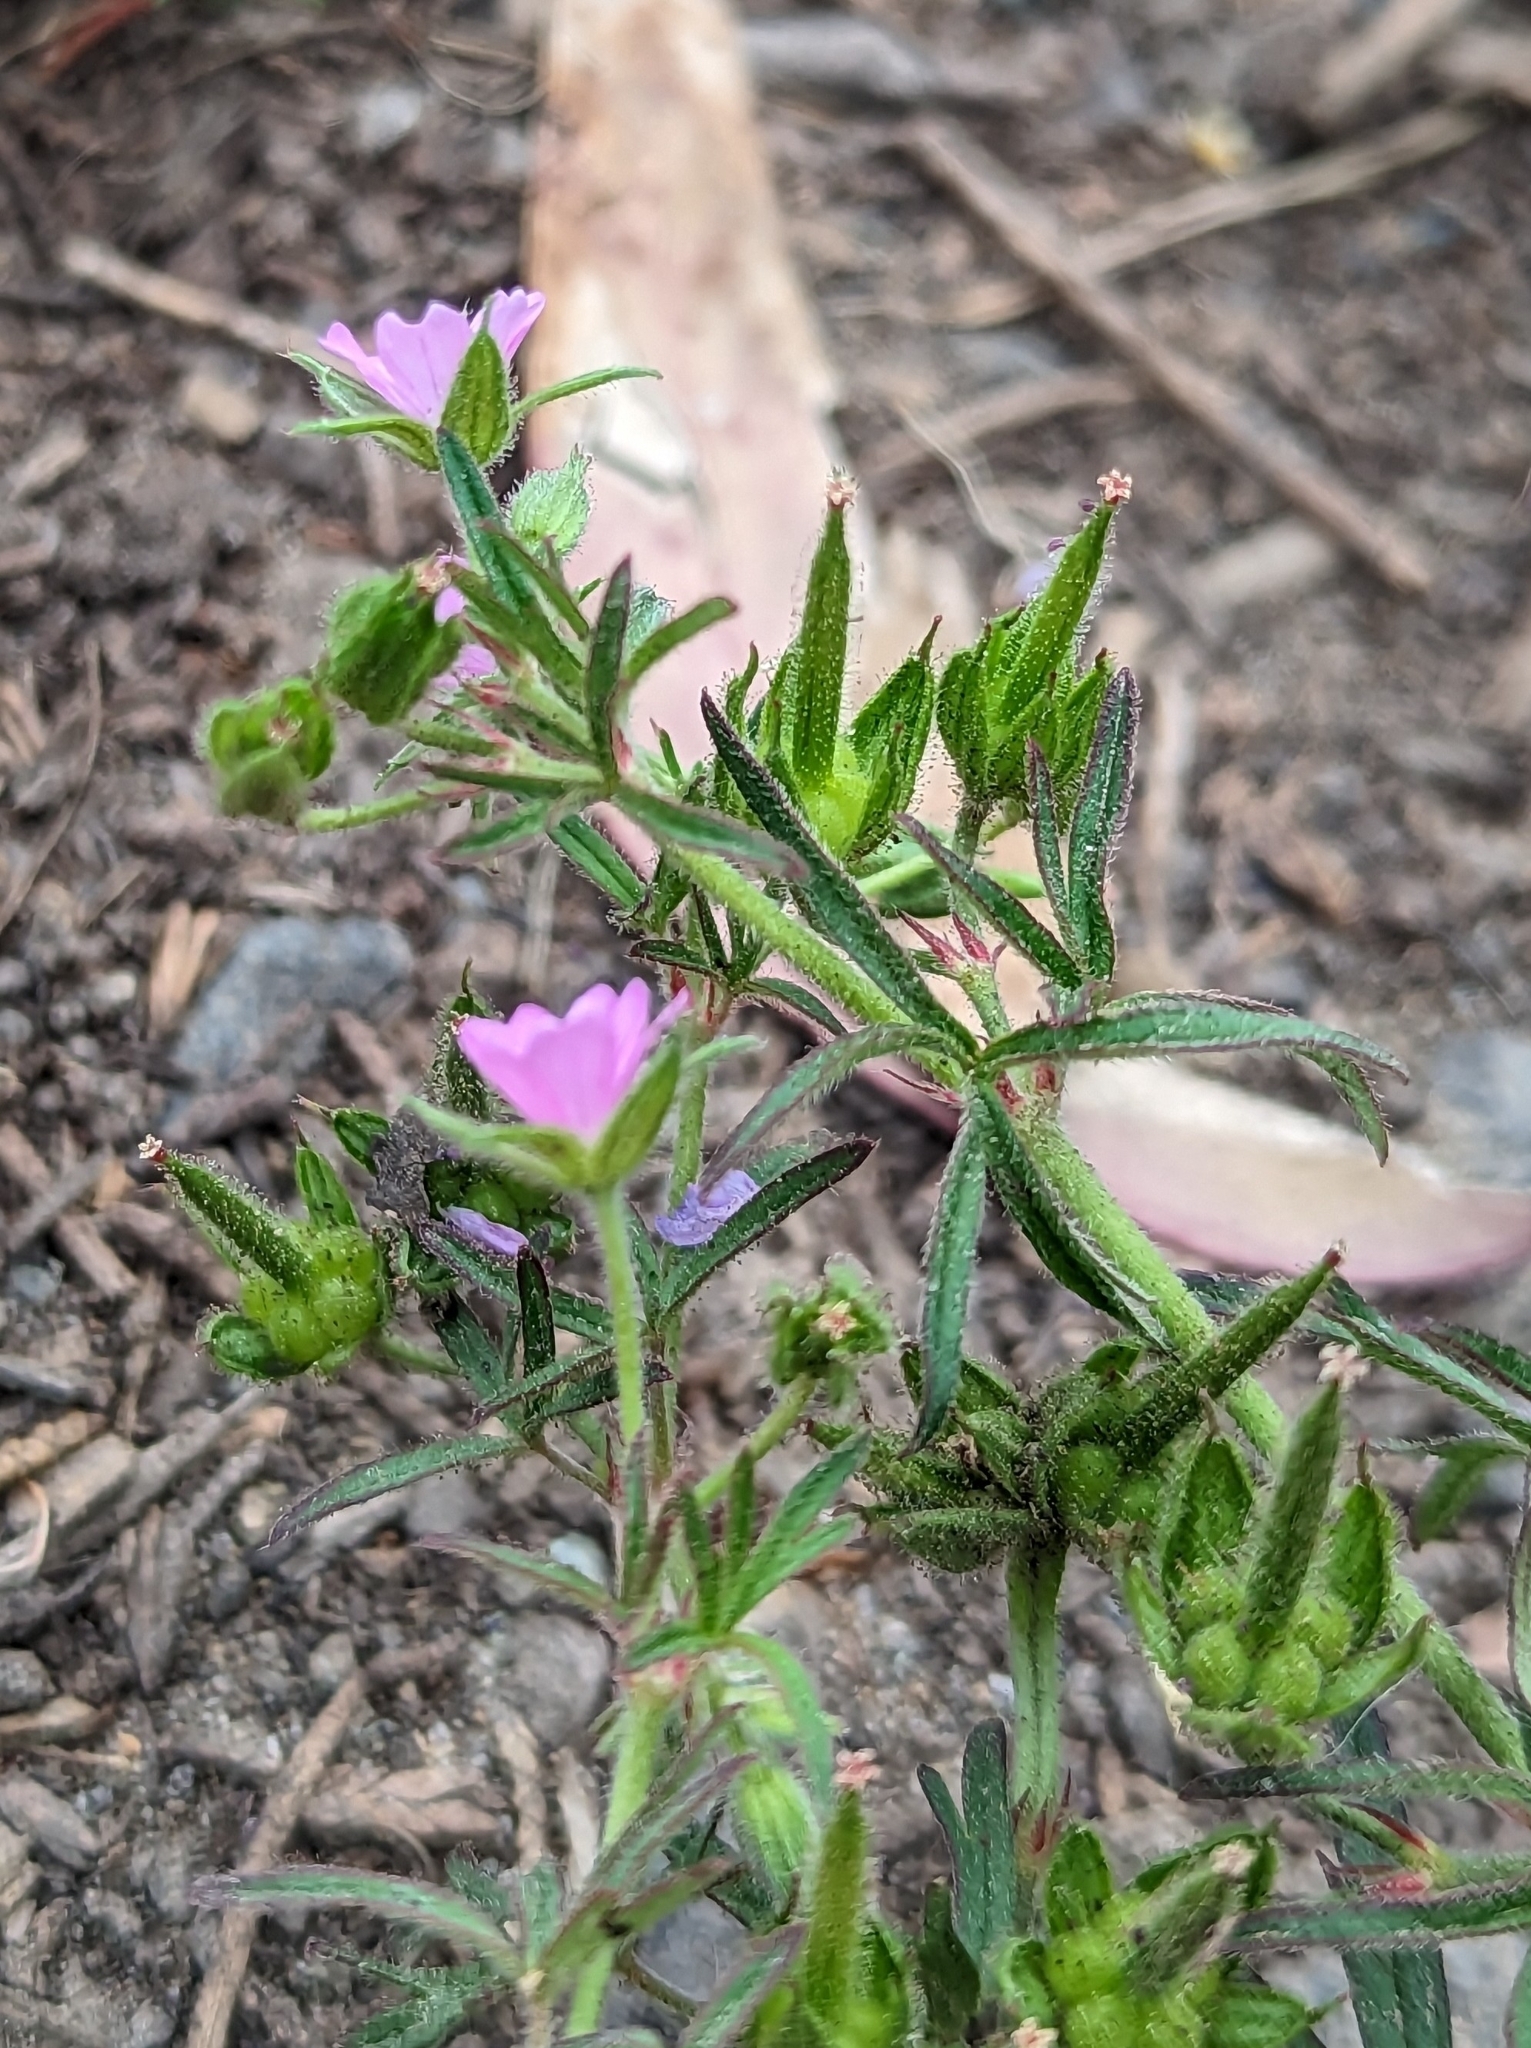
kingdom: Plantae
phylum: Tracheophyta
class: Magnoliopsida
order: Geraniales
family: Geraniaceae
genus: Geranium
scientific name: Geranium dissectum
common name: Cut-leaved crane's-bill
